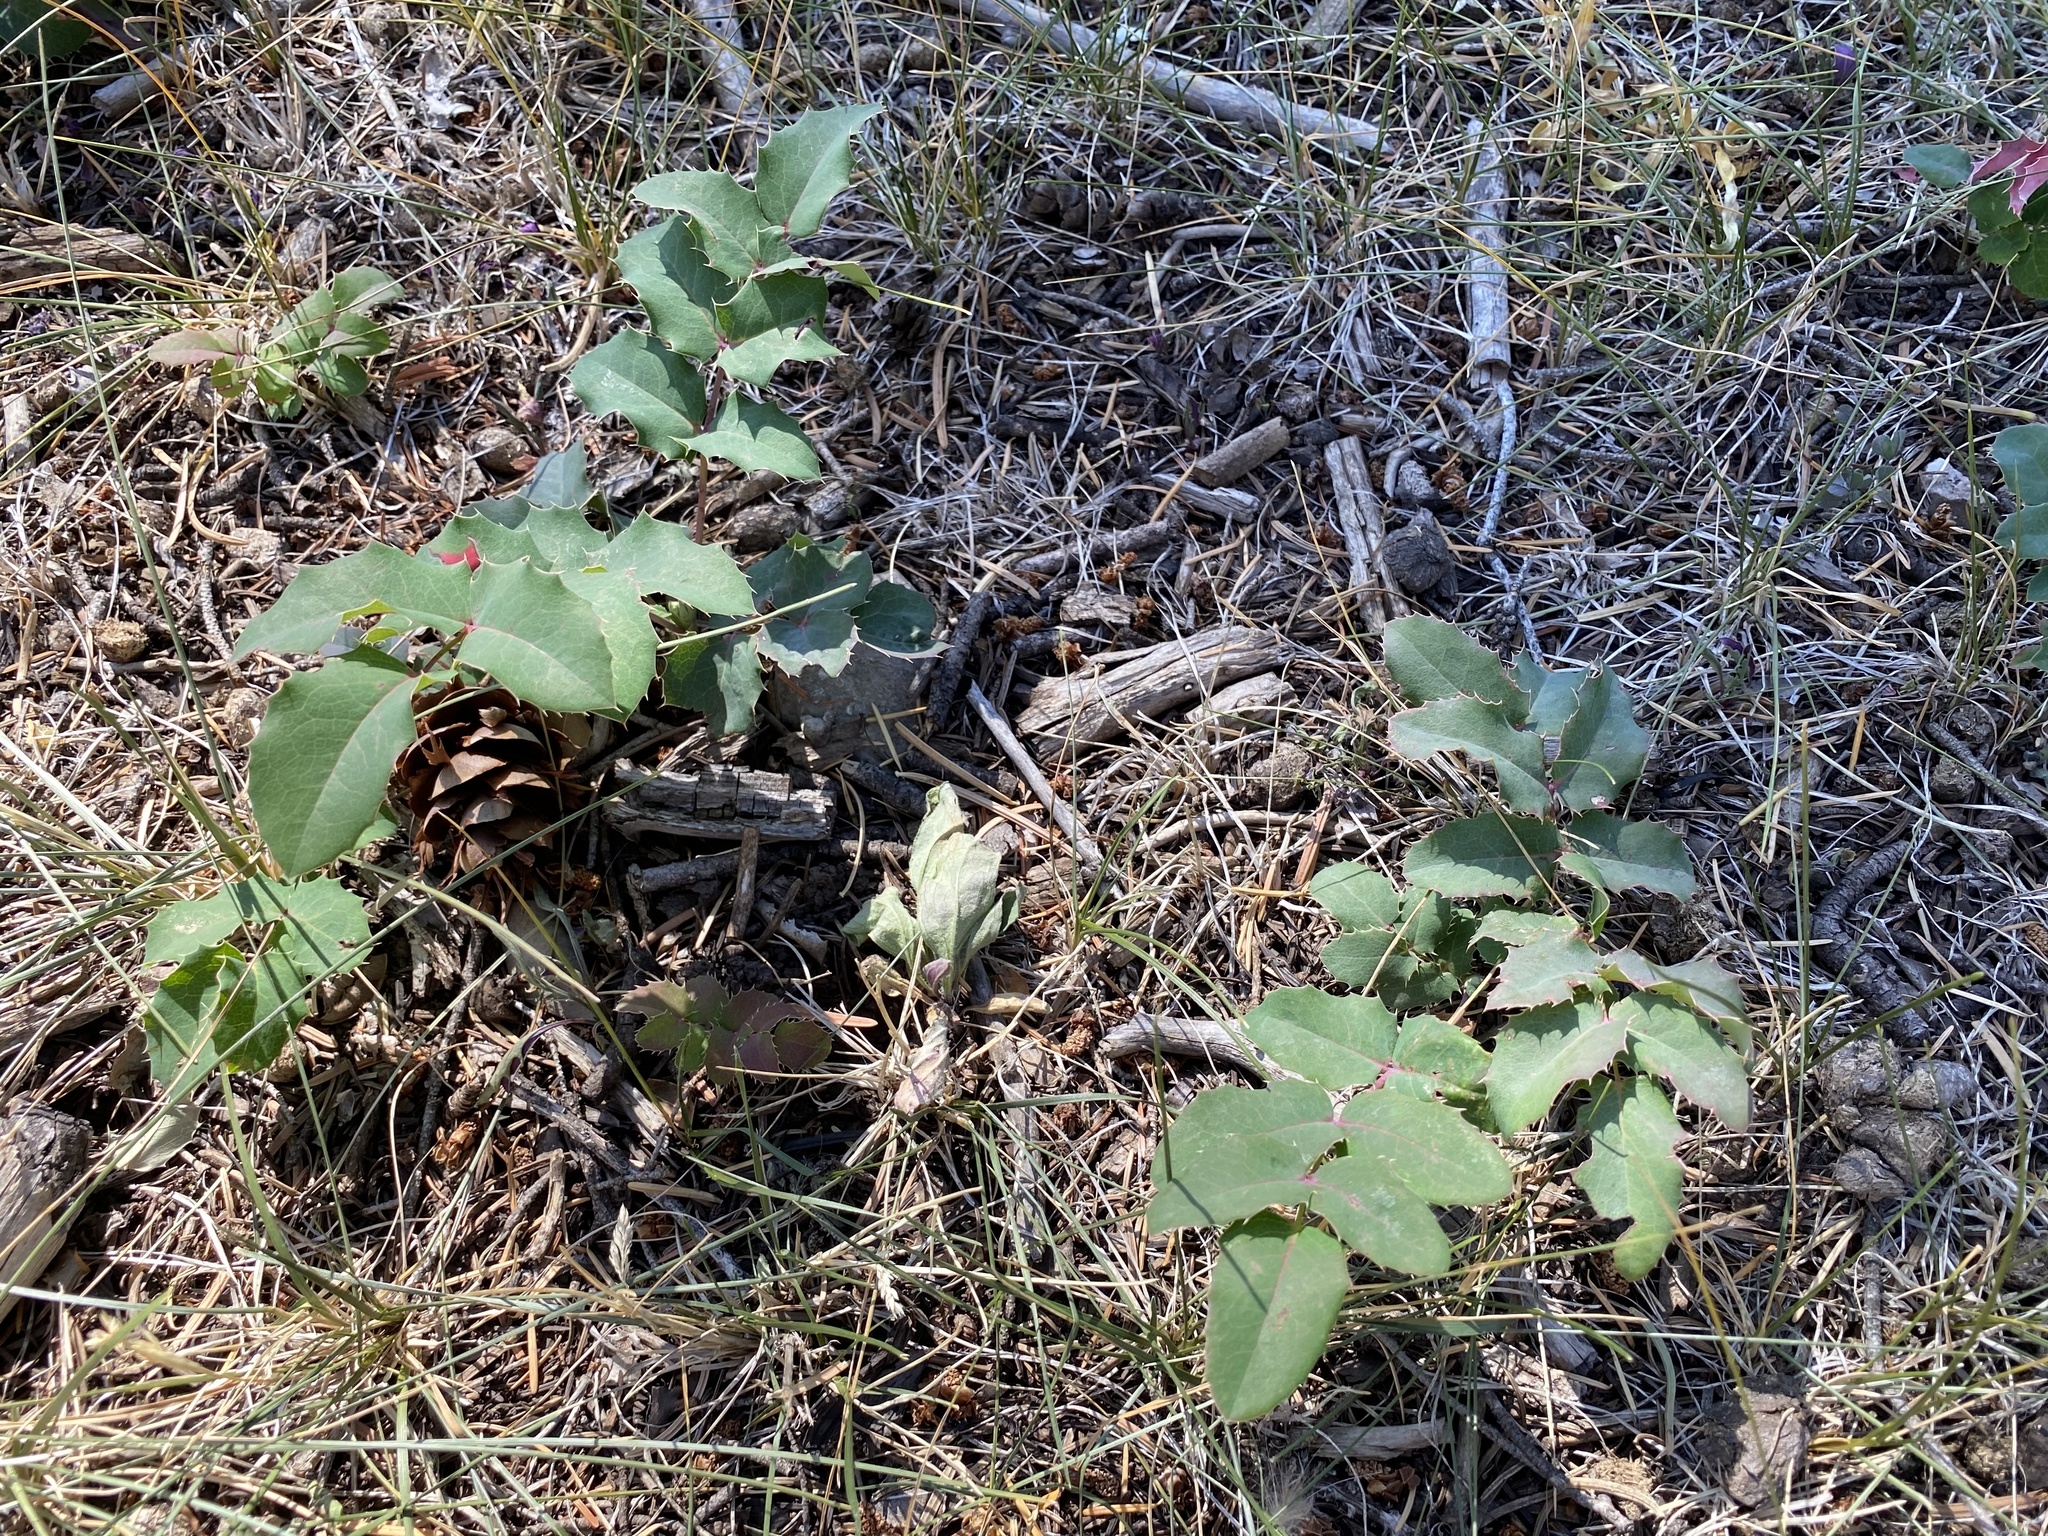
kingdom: Plantae
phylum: Tracheophyta
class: Magnoliopsida
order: Ranunculales
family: Berberidaceae
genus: Mahonia
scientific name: Mahonia repens
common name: Creeping oregon-grape
